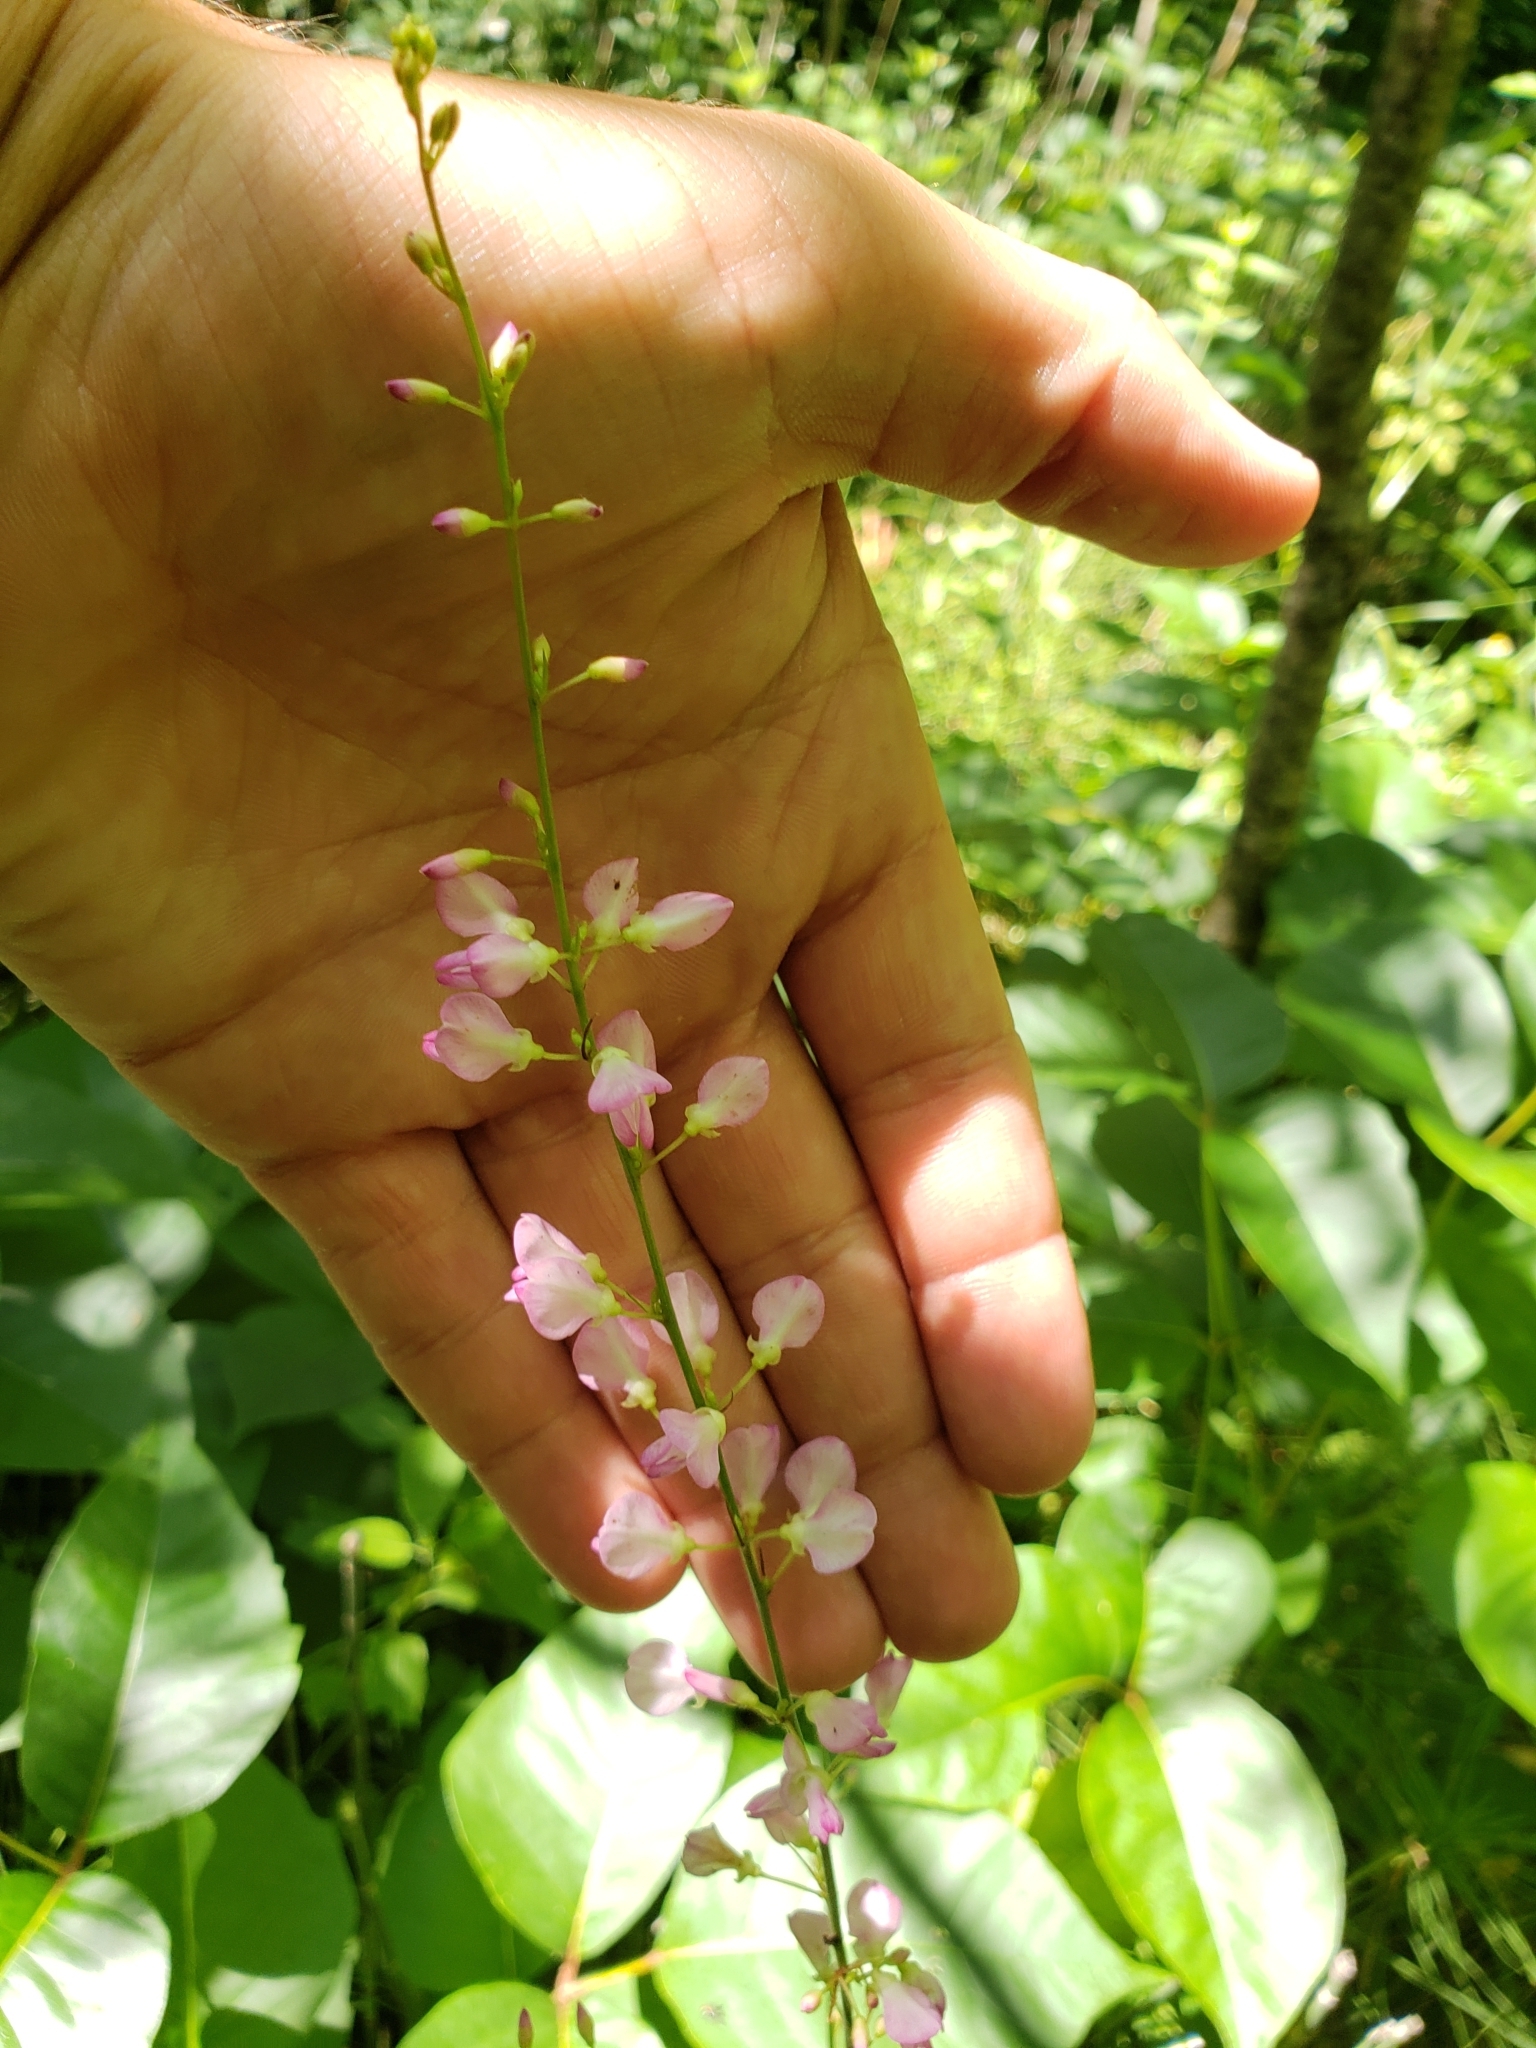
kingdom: Plantae
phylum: Tracheophyta
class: Magnoliopsida
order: Fabales
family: Fabaceae
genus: Hylodesmum
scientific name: Hylodesmum glutinosum
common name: Clustered-leaved tick-trefoil
